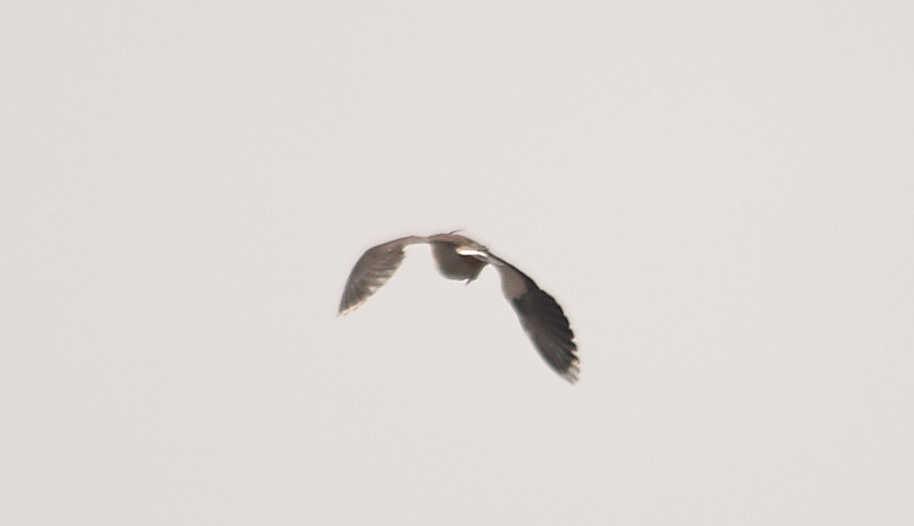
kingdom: Animalia
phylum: Chordata
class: Aves
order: Charadriiformes
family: Charadriidae
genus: Vanellus
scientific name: Vanellus vanellus
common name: Northern lapwing
